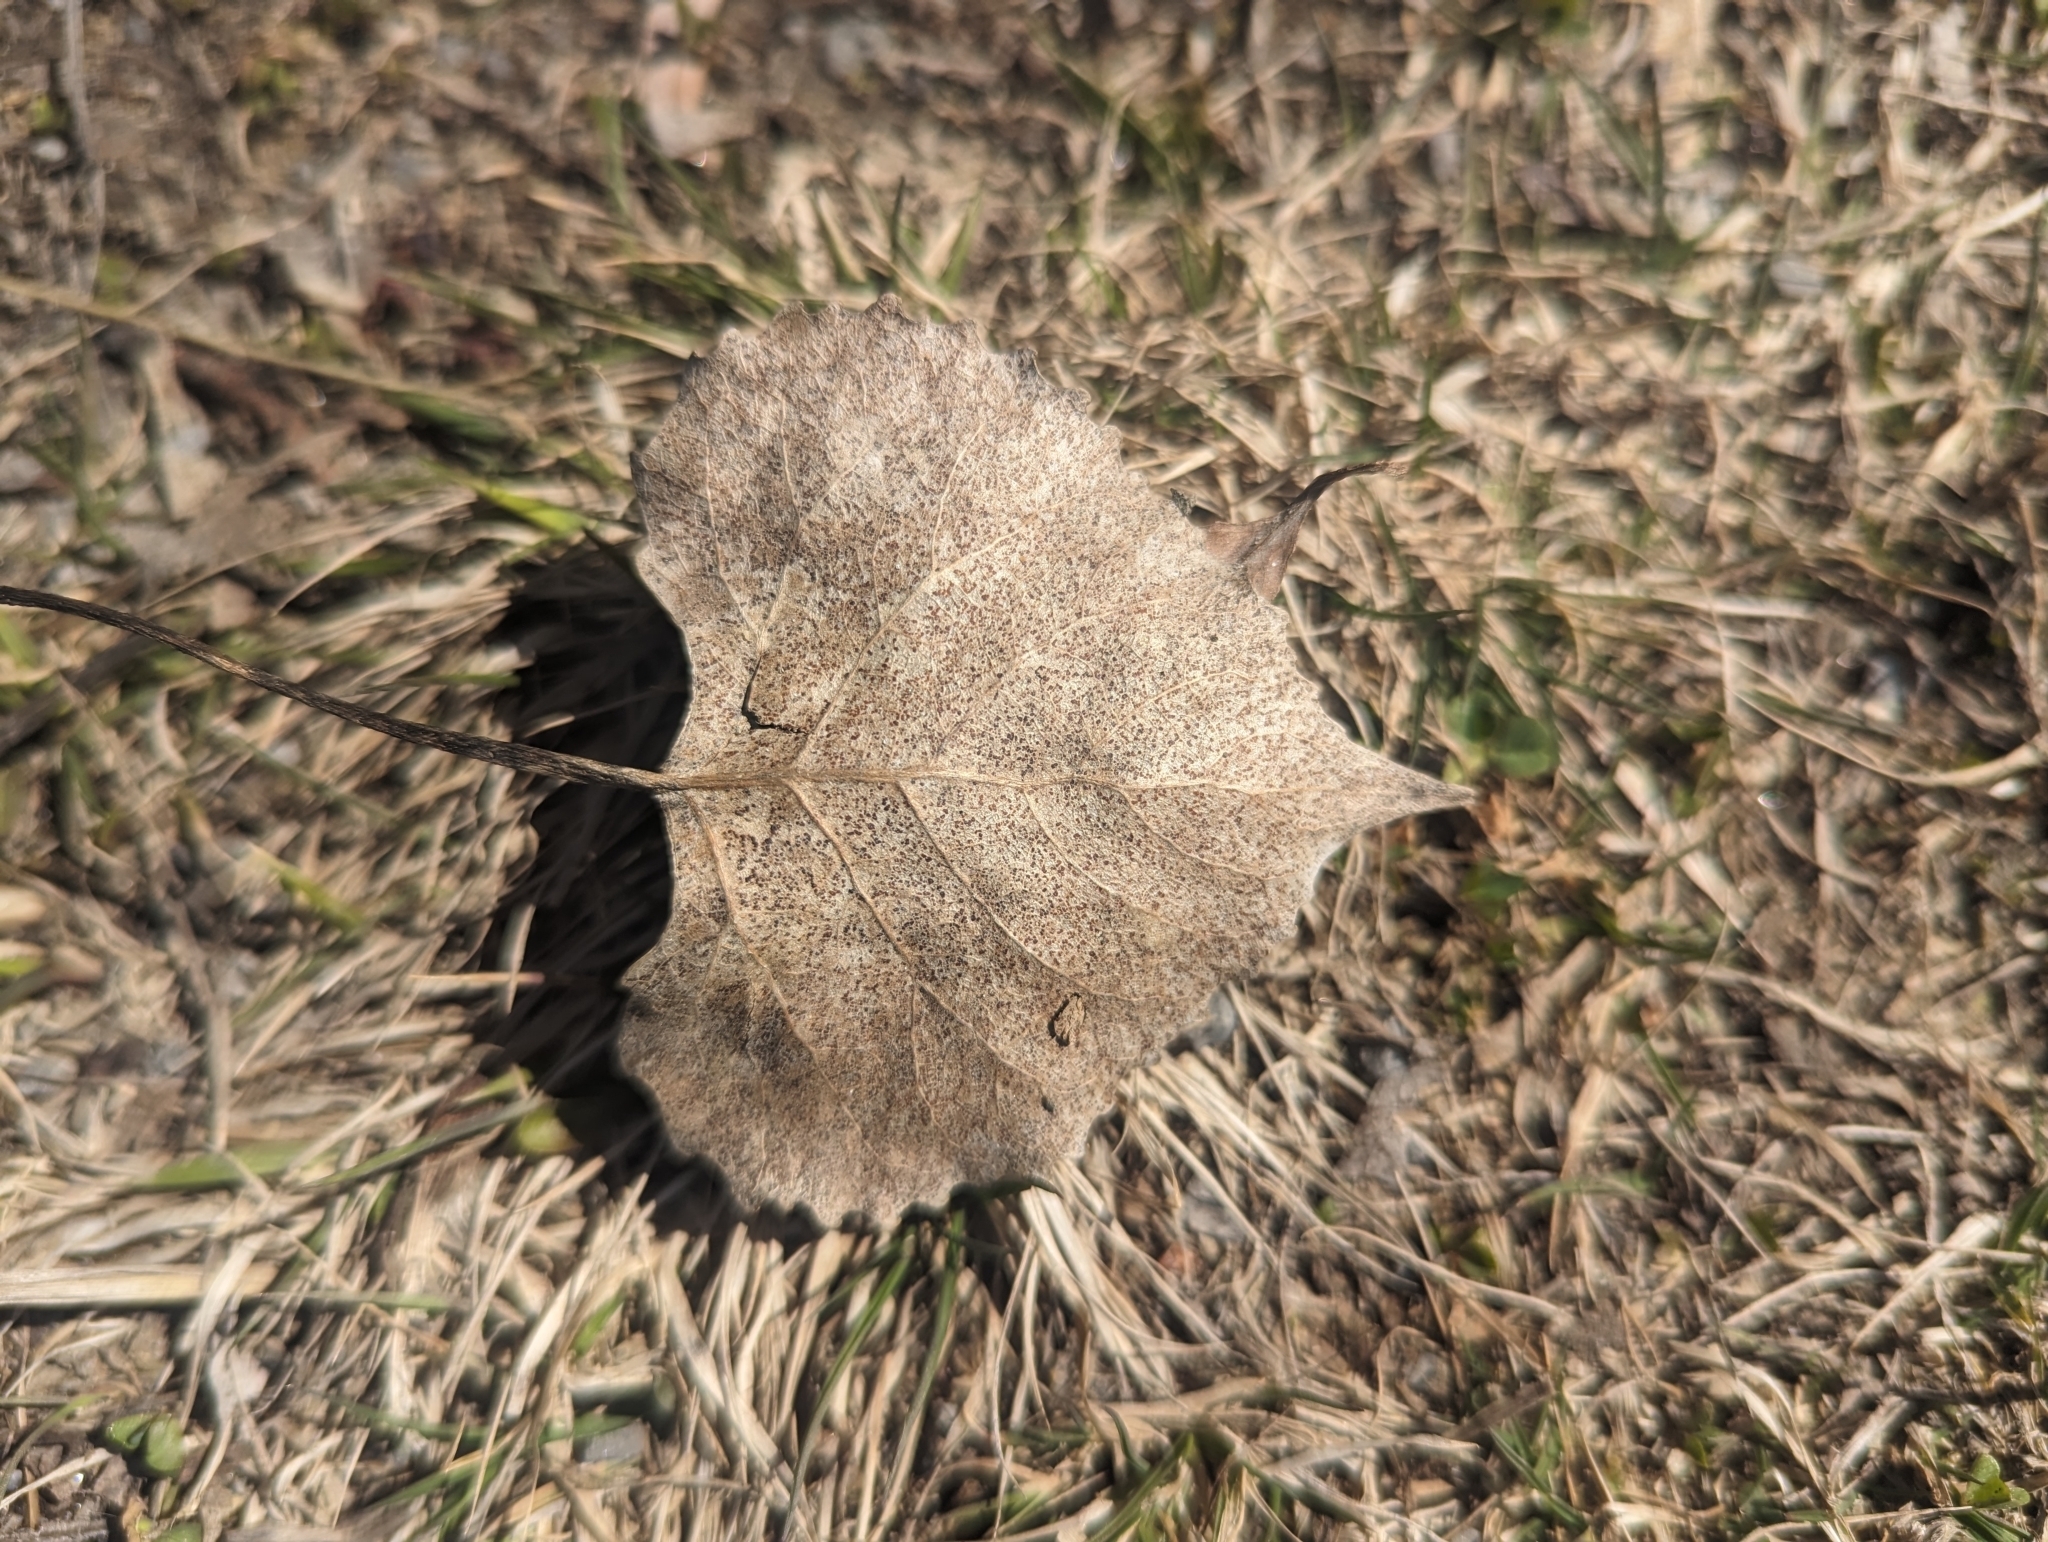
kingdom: Plantae
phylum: Tracheophyta
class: Magnoliopsida
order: Malpighiales
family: Salicaceae
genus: Populus
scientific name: Populus deltoides
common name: Eastern cottonwood
